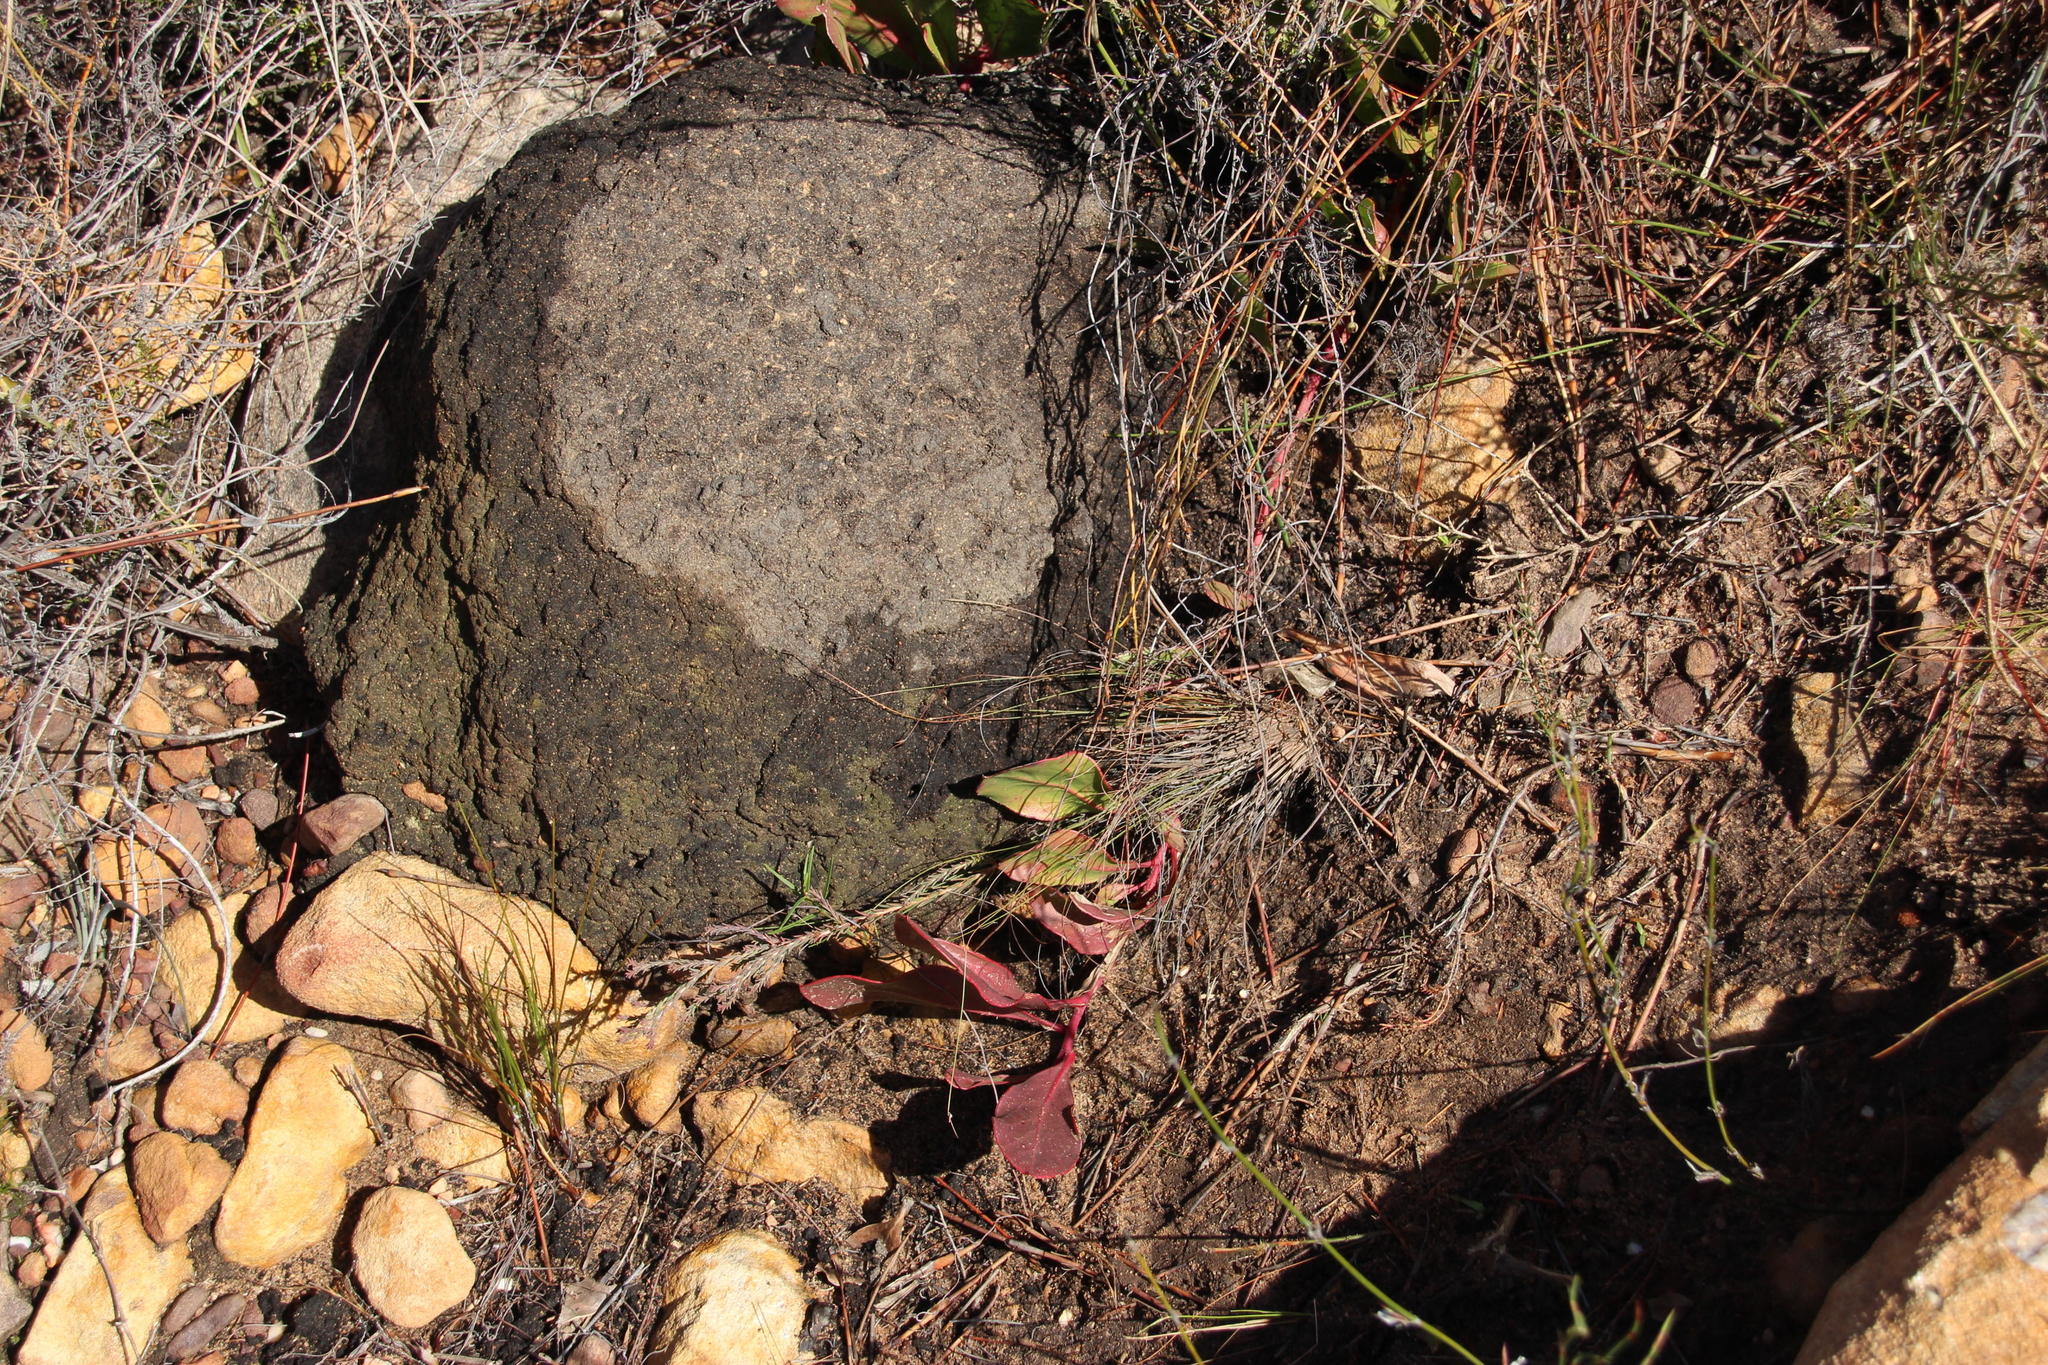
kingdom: Animalia
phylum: Arthropoda
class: Insecta
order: Blattodea
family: Termitidae
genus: Amitermes
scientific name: Amitermes hastatus
